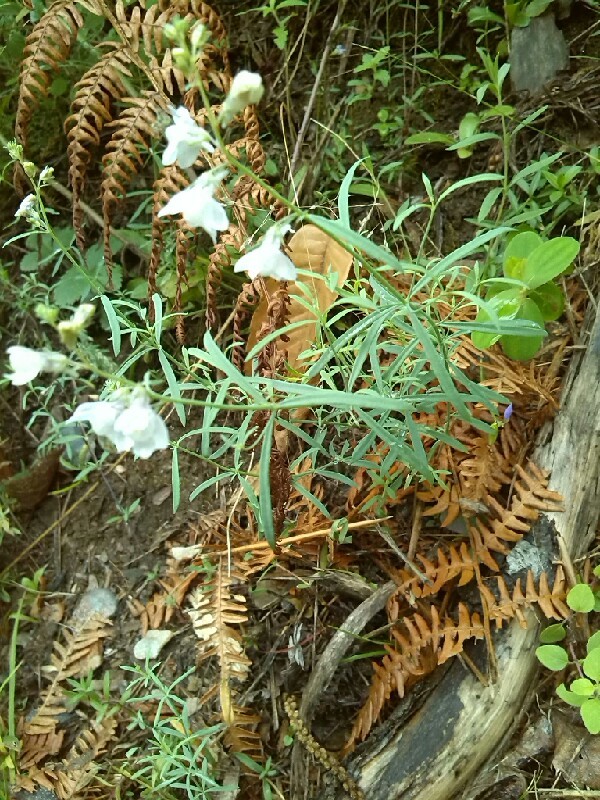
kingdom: Plantae
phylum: Tracheophyta
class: Magnoliopsida
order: Lamiales
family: Plantaginaceae
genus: Linaria
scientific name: Linaria repens
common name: Pale toadflax
